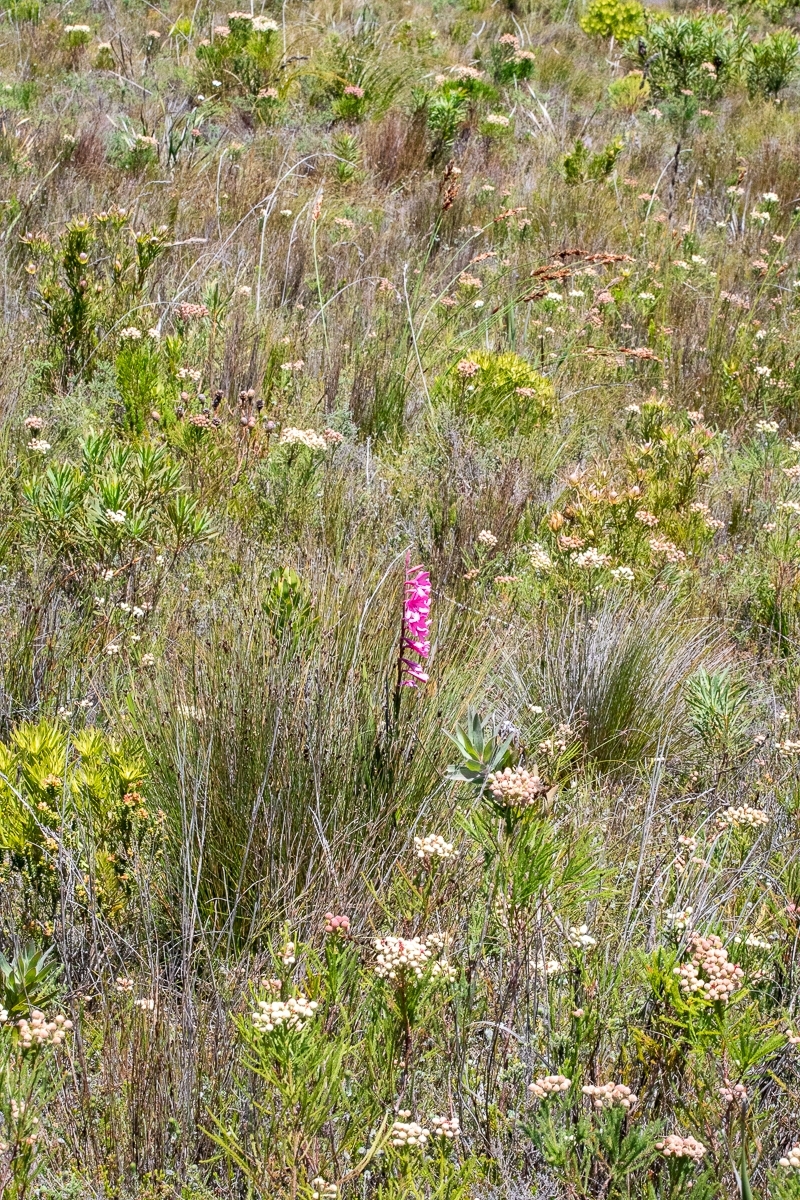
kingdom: Plantae
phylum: Tracheophyta
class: Liliopsida
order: Asparagales
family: Iridaceae
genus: Watsonia
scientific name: Watsonia borbonica
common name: Bugle-lily
